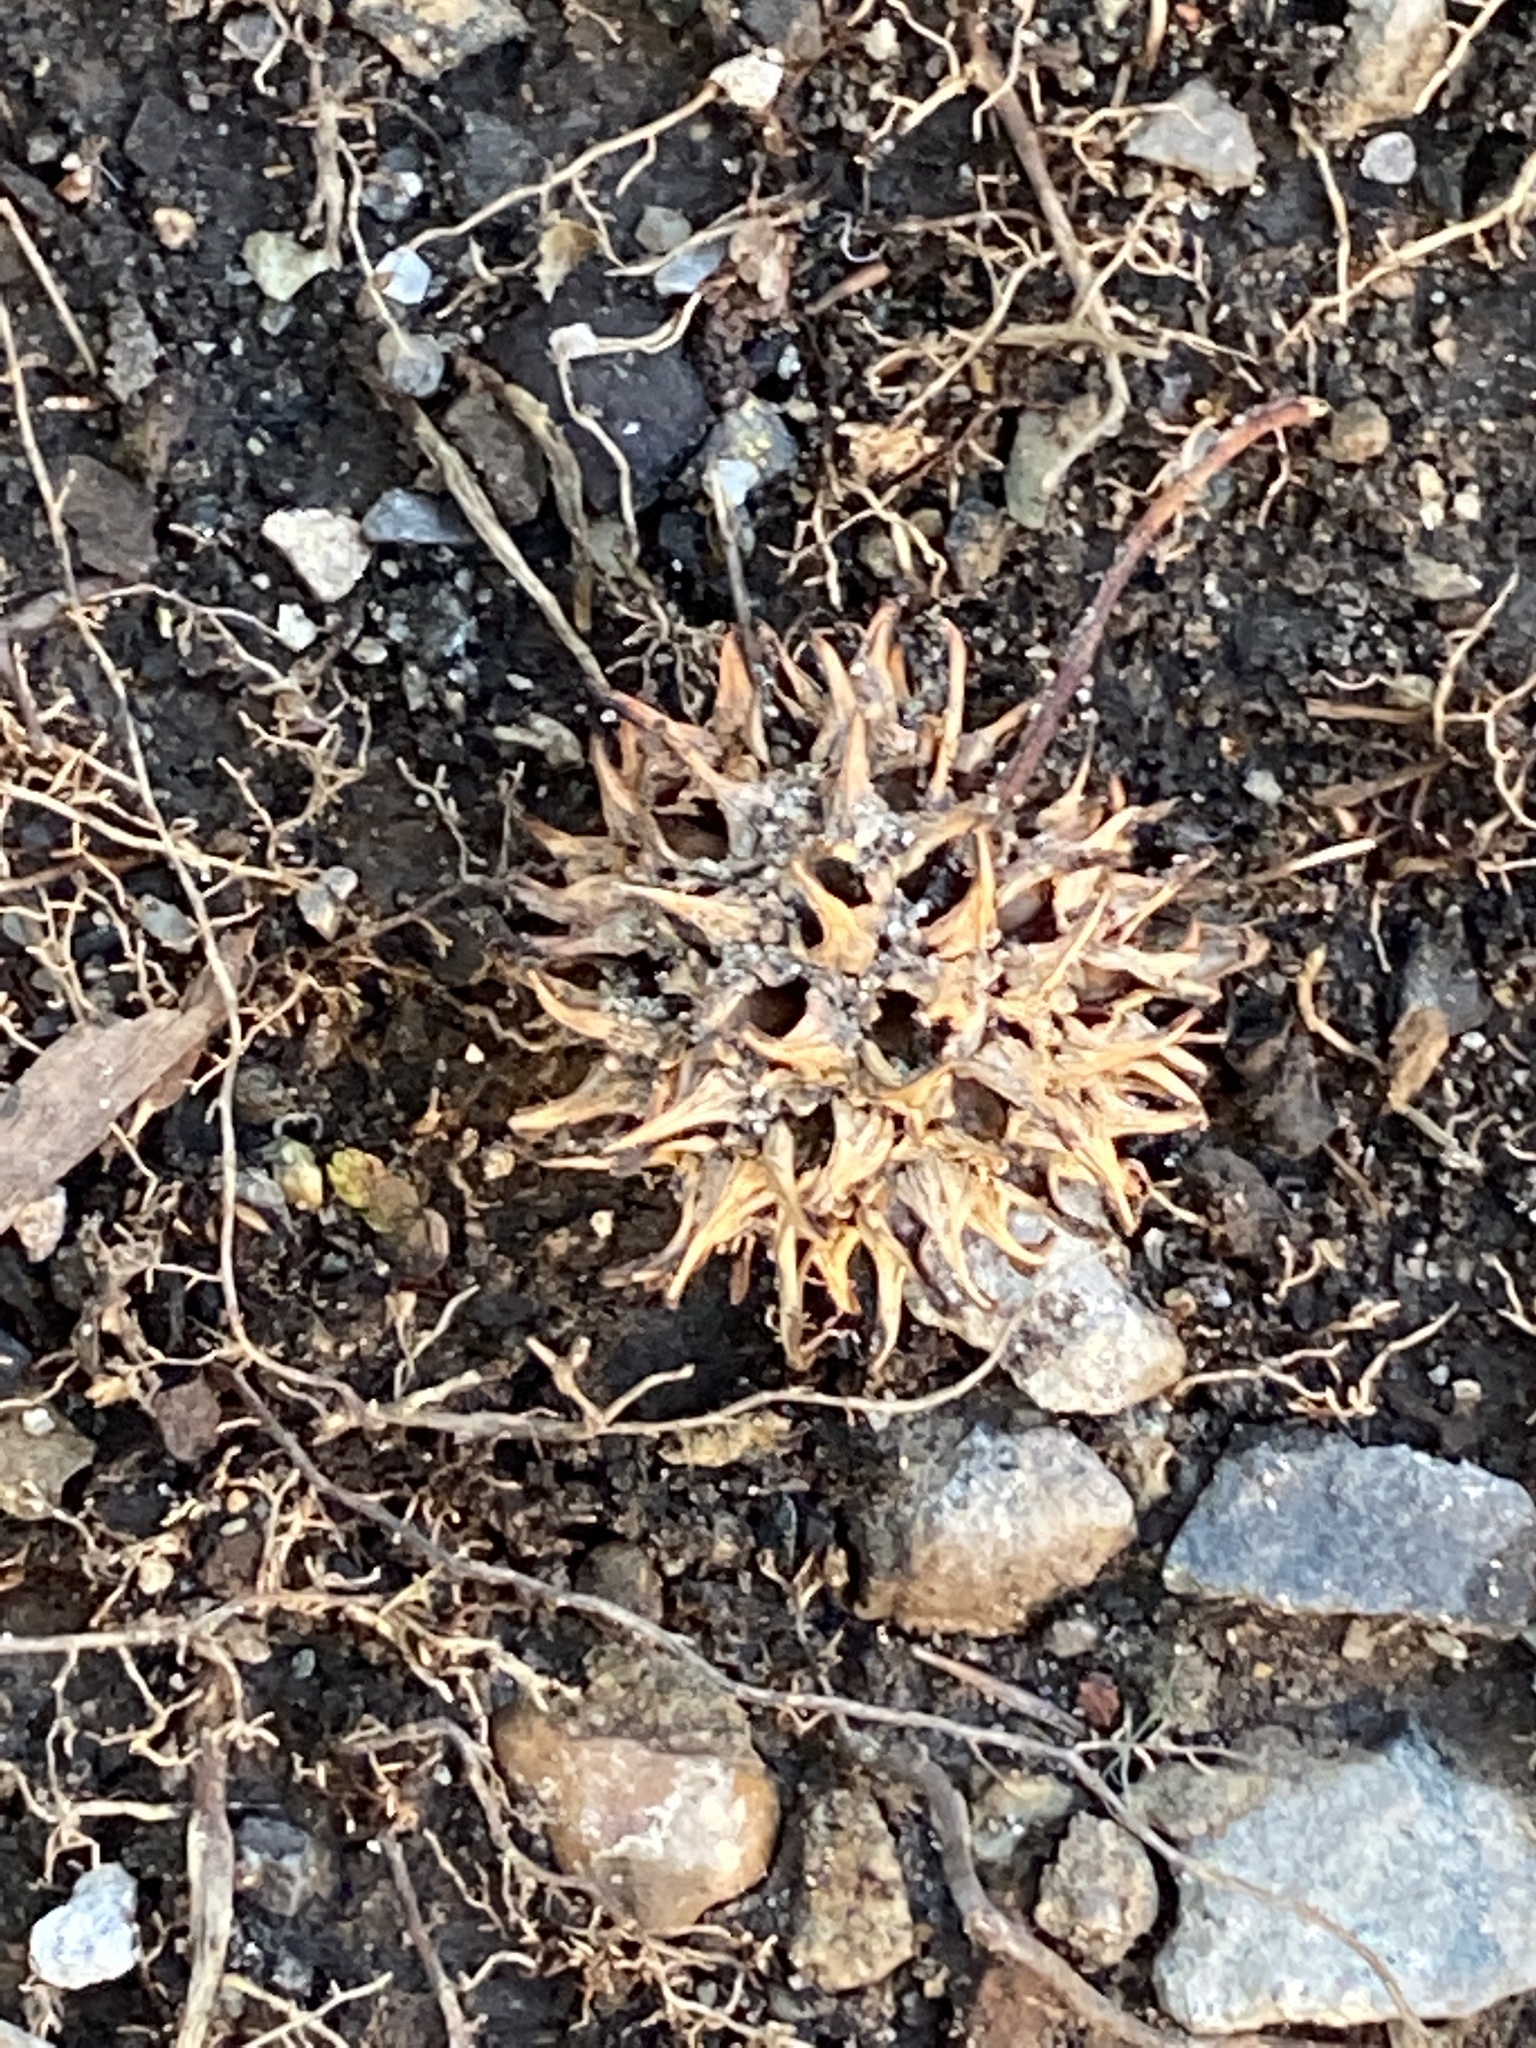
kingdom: Plantae
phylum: Tracheophyta
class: Magnoliopsida
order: Saxifragales
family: Altingiaceae
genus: Liquidambar
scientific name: Liquidambar styraciflua
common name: Sweet gum
